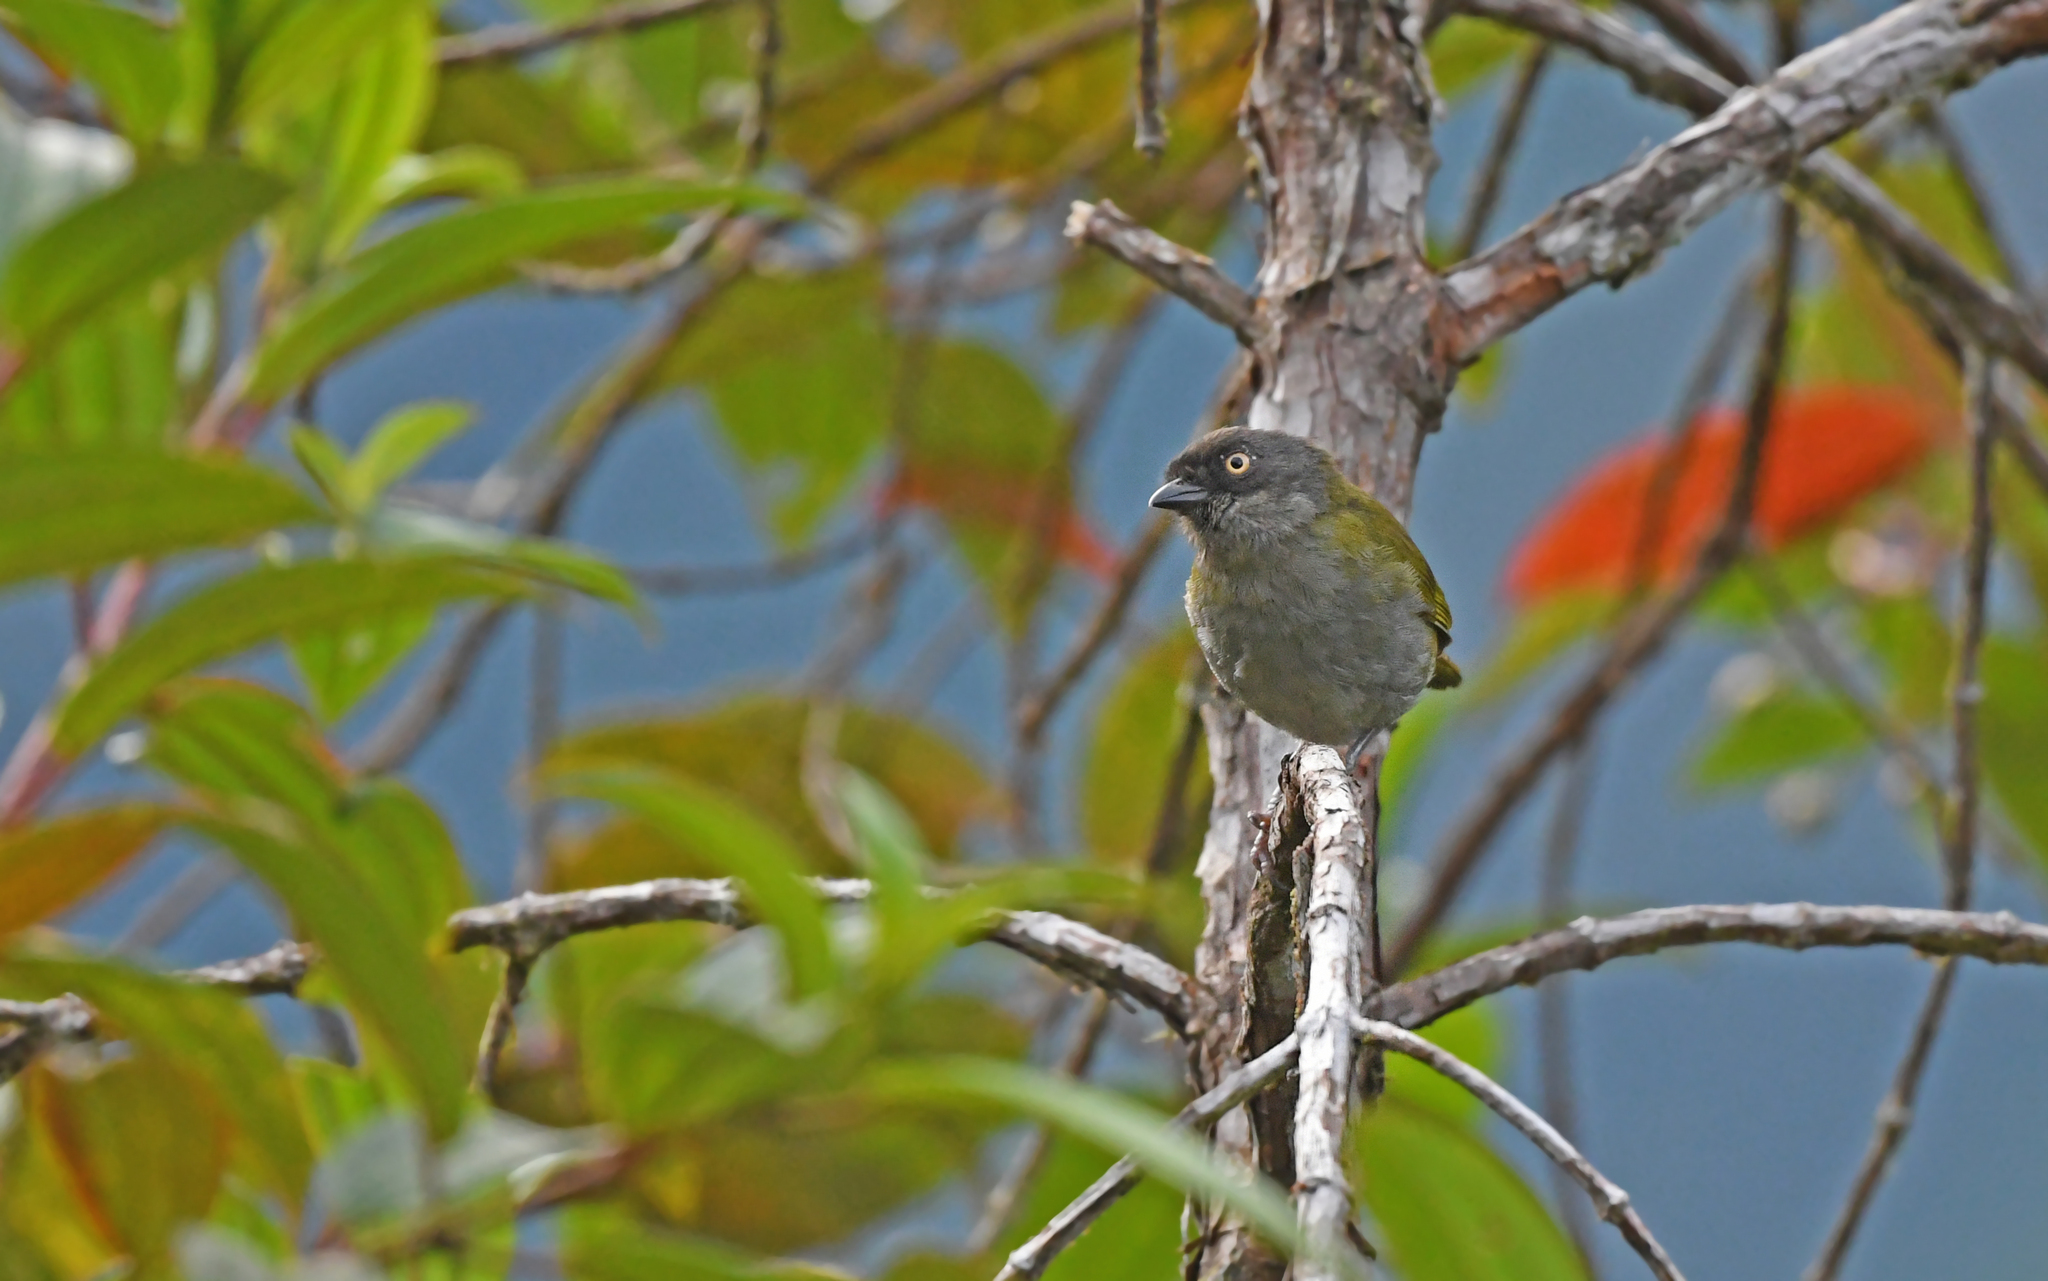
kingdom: Animalia
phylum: Chordata
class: Aves
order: Passeriformes
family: Passerellidae
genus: Chlorospingus
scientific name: Chlorospingus semifuscus
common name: Dusky bush-tanager
